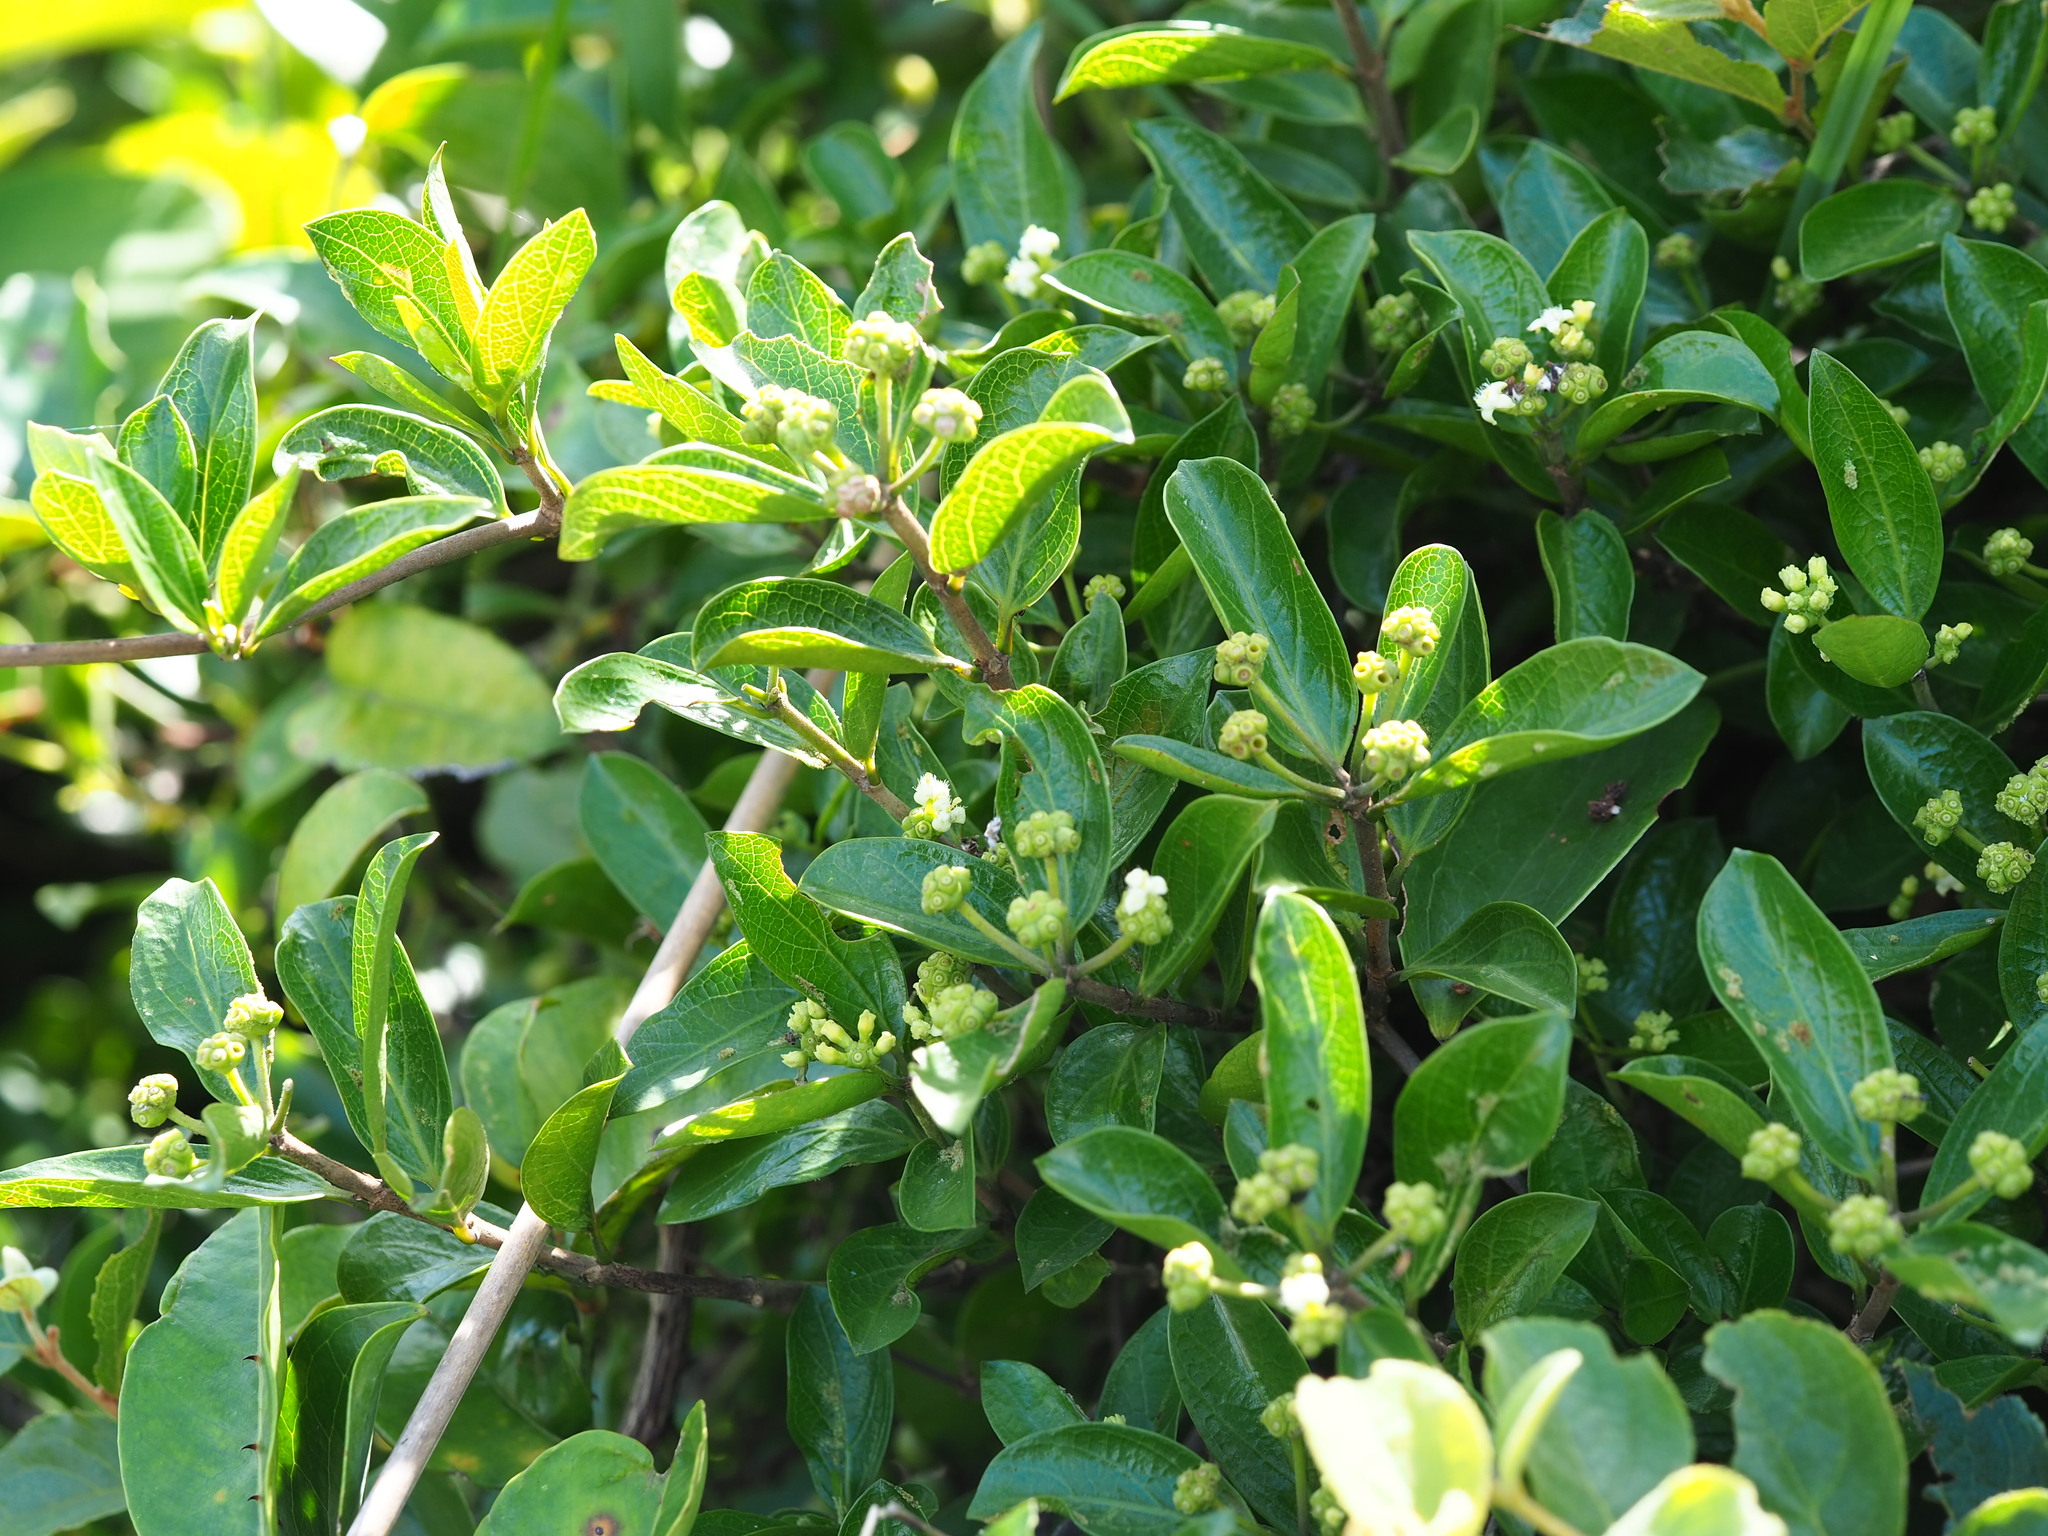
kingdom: Plantae
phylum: Tracheophyta
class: Magnoliopsida
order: Gentianales
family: Rubiaceae
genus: Gynochthodes
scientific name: Gynochthodes parvifolia
